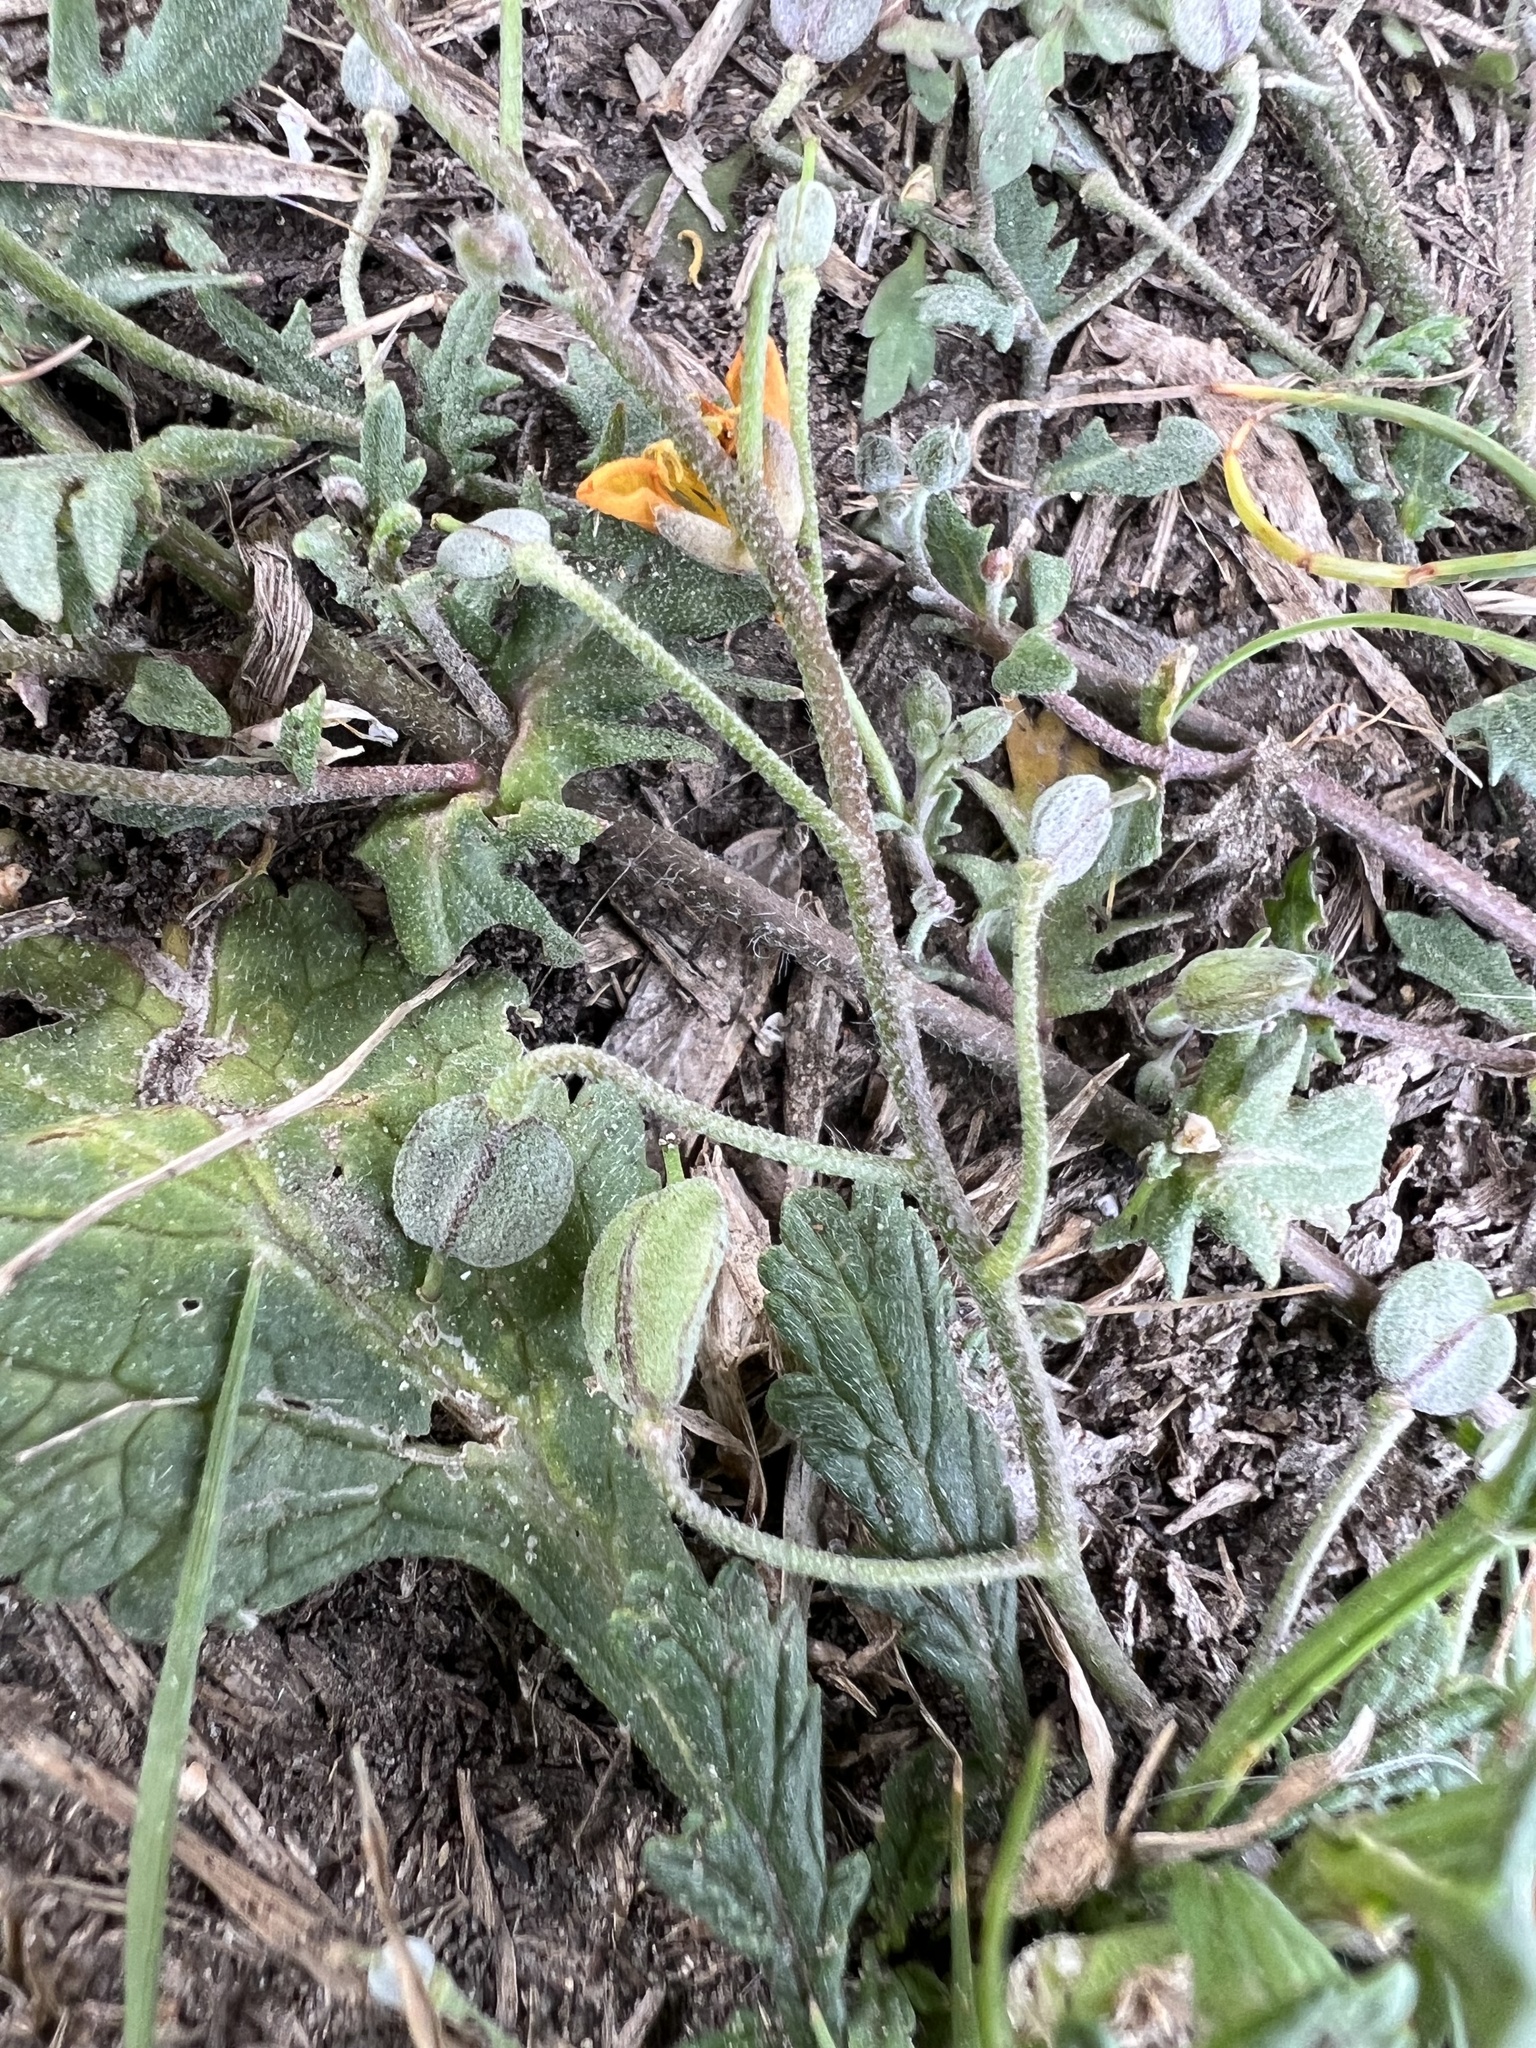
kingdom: Plantae
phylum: Tracheophyta
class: Magnoliopsida
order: Brassicales
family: Brassicaceae
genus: Paysonia
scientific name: Paysonia lasiocarpa
